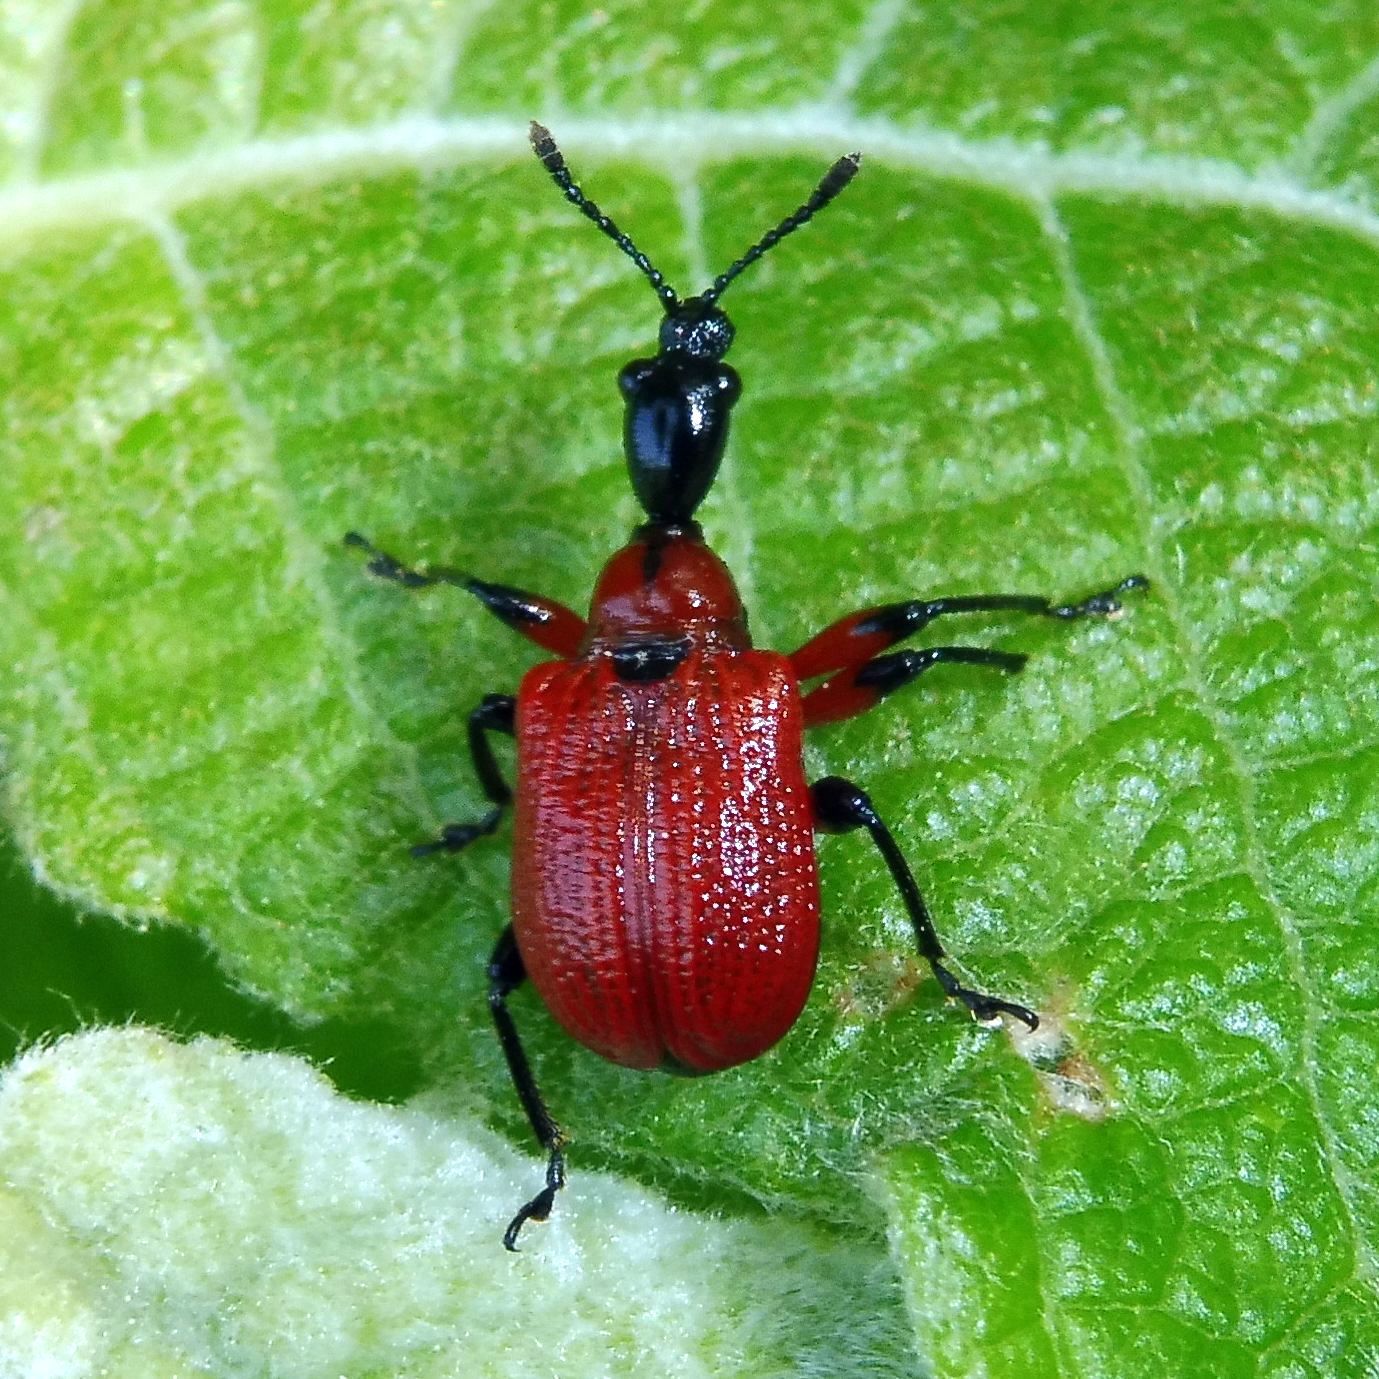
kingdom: Animalia
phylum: Arthropoda
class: Insecta
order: Coleoptera
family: Attelabidae
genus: Apoderus
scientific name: Apoderus coryli
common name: Hazel leaf roller
